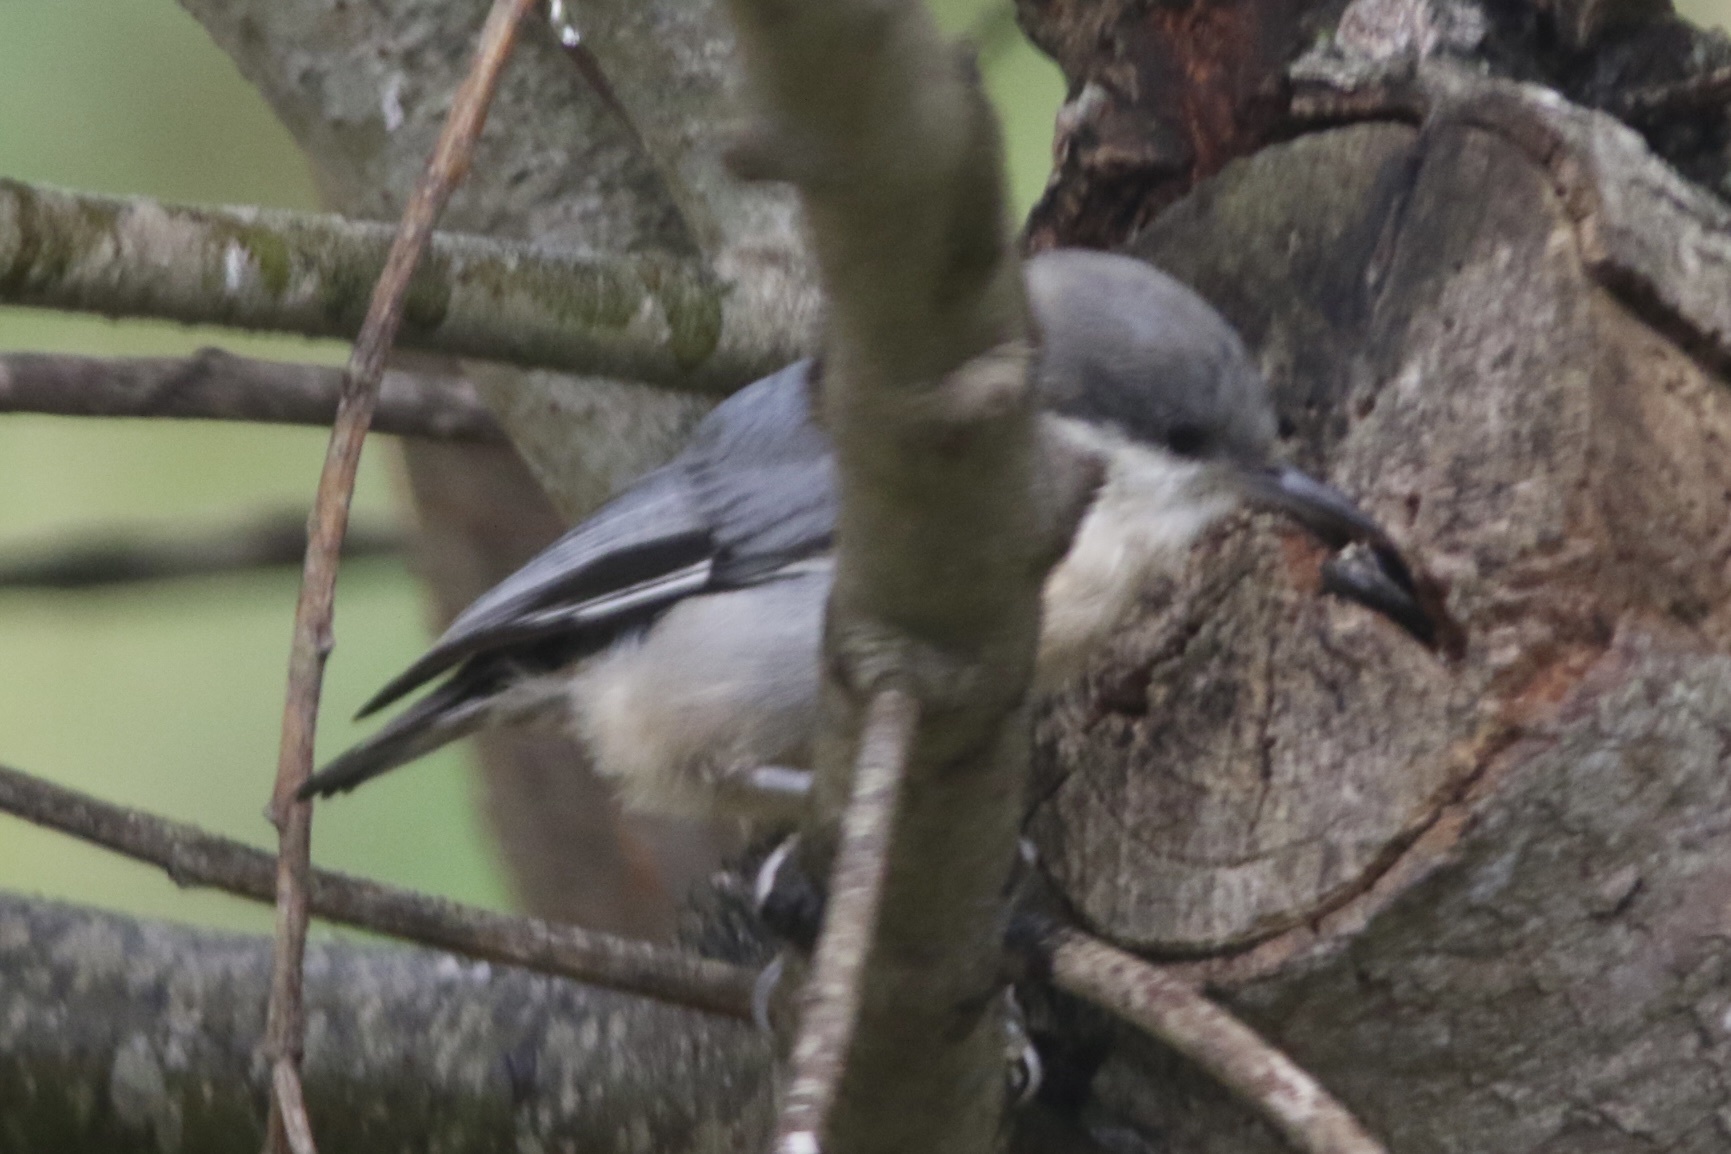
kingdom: Animalia
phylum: Chordata
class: Aves
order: Passeriformes
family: Sittidae
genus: Sitta
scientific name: Sitta pygmaea
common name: Pygmy nuthatch
